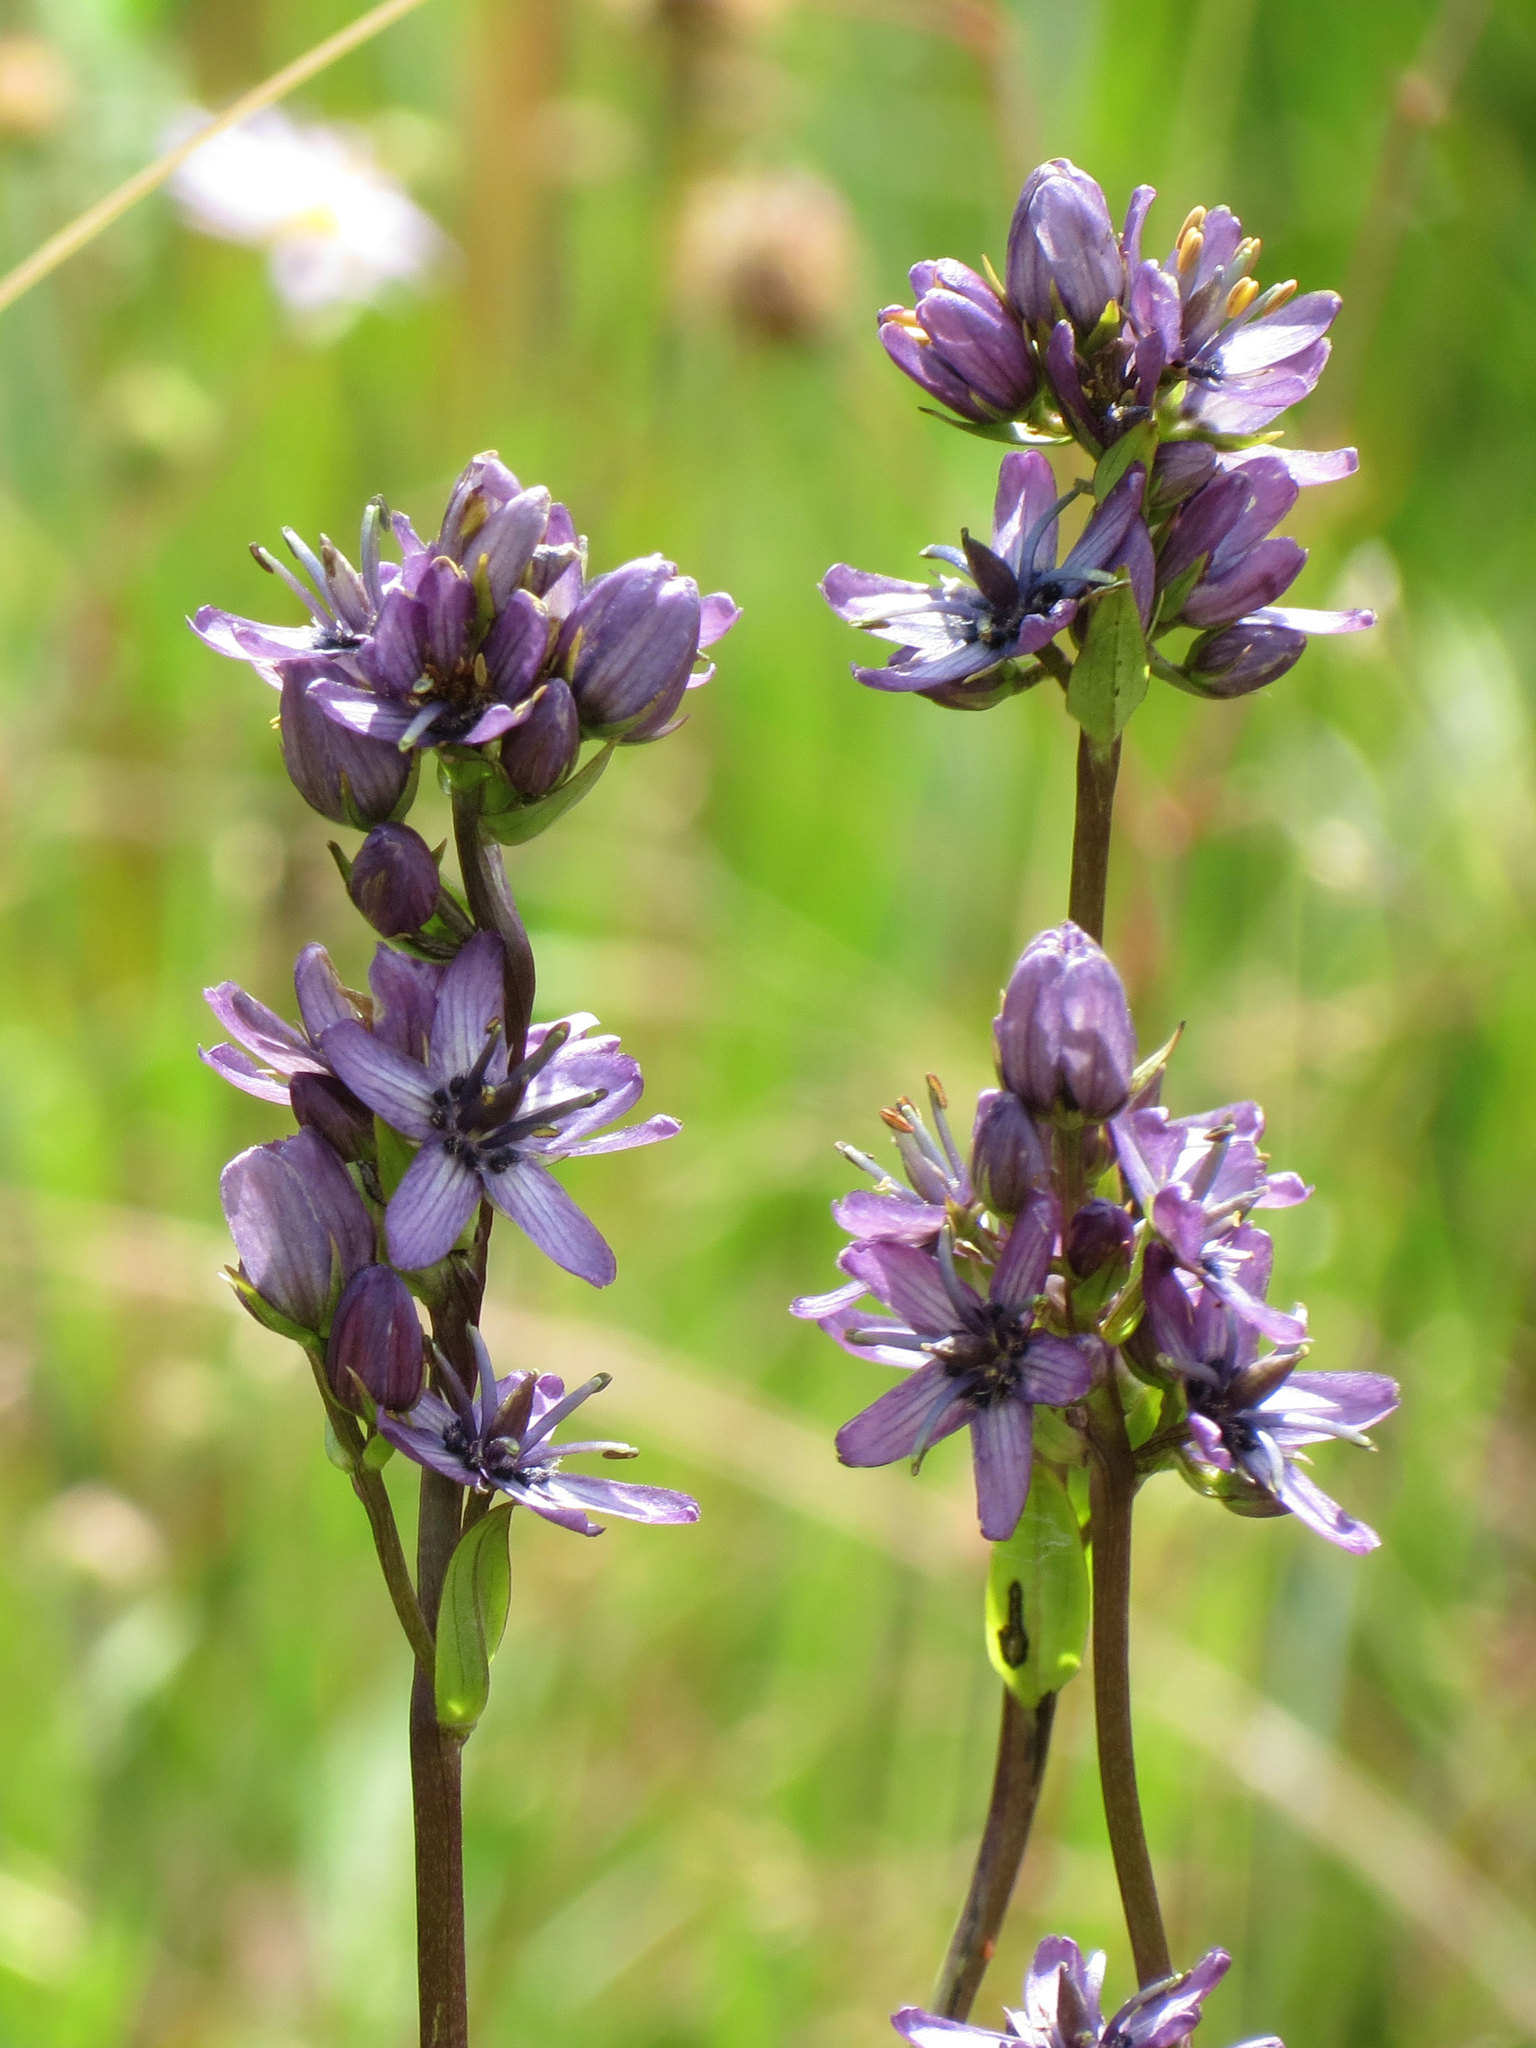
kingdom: Plantae
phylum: Tracheophyta
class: Magnoliopsida
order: Gentianales
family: Gentianaceae
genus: Swertia
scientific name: Swertia perennis
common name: Alpine bog swertia
